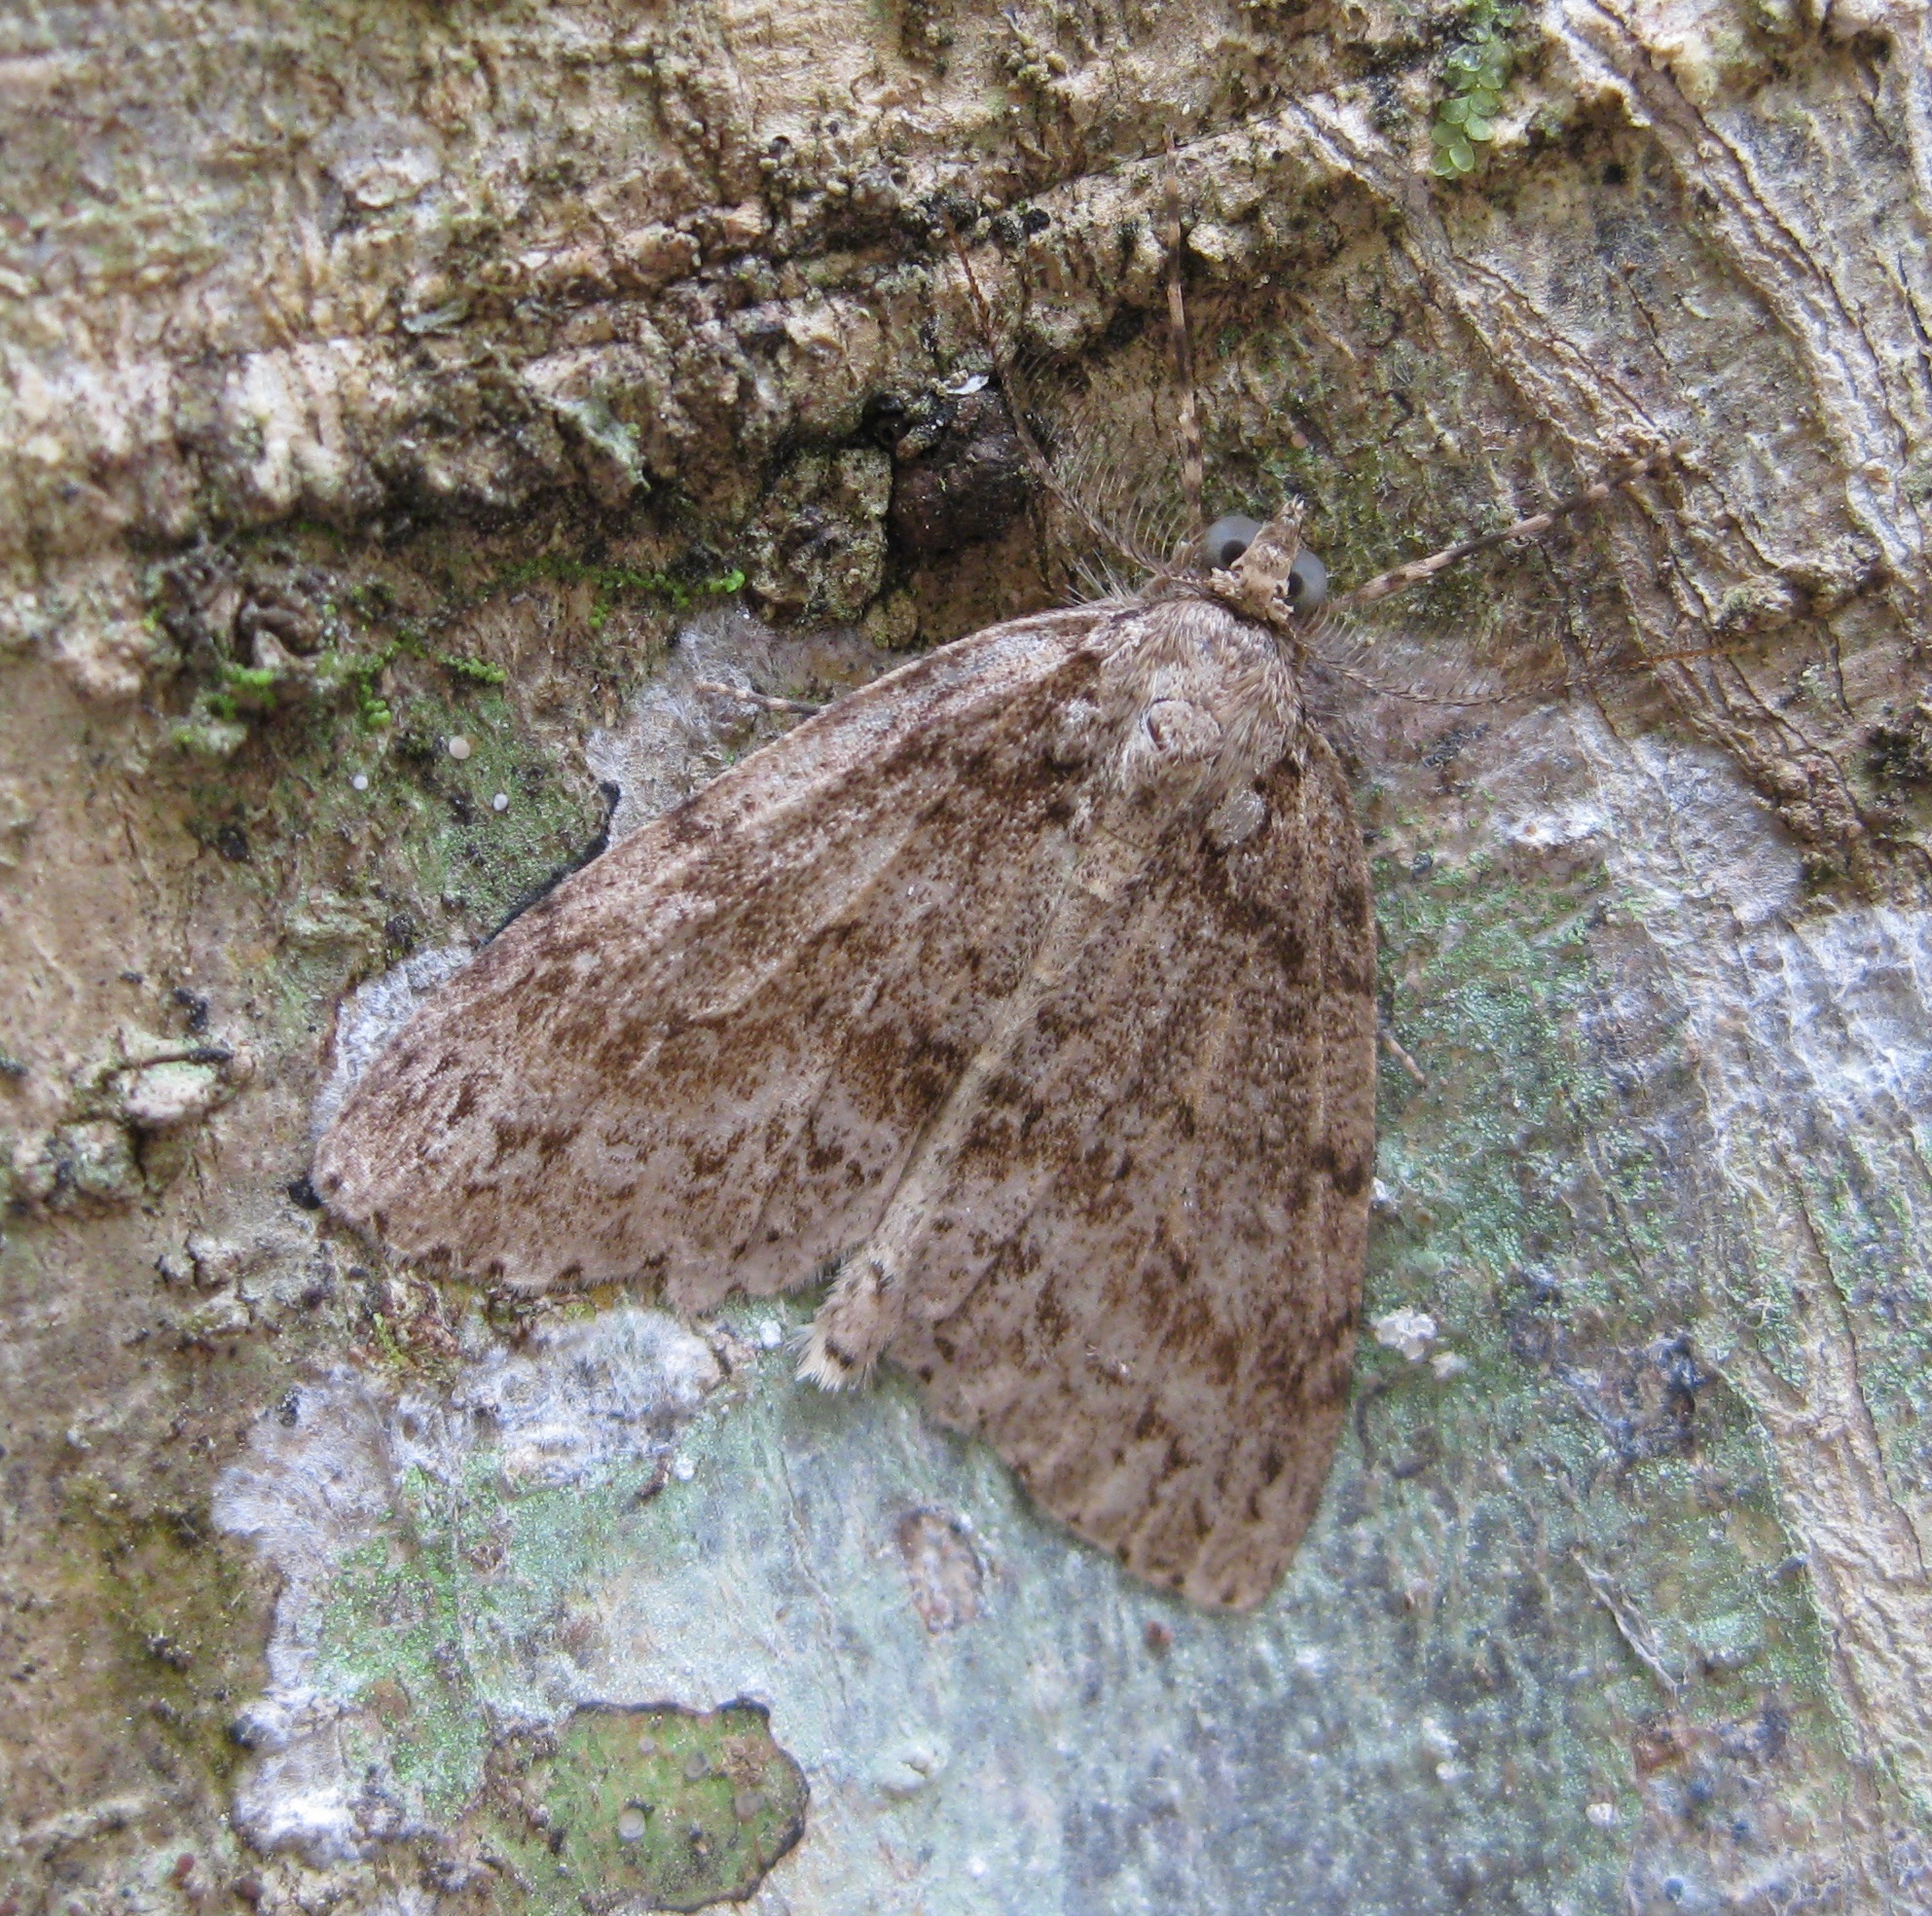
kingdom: Animalia
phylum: Arthropoda
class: Insecta
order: Lepidoptera
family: Geometridae
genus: Pseudocoremia
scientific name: Pseudocoremia fenerata
